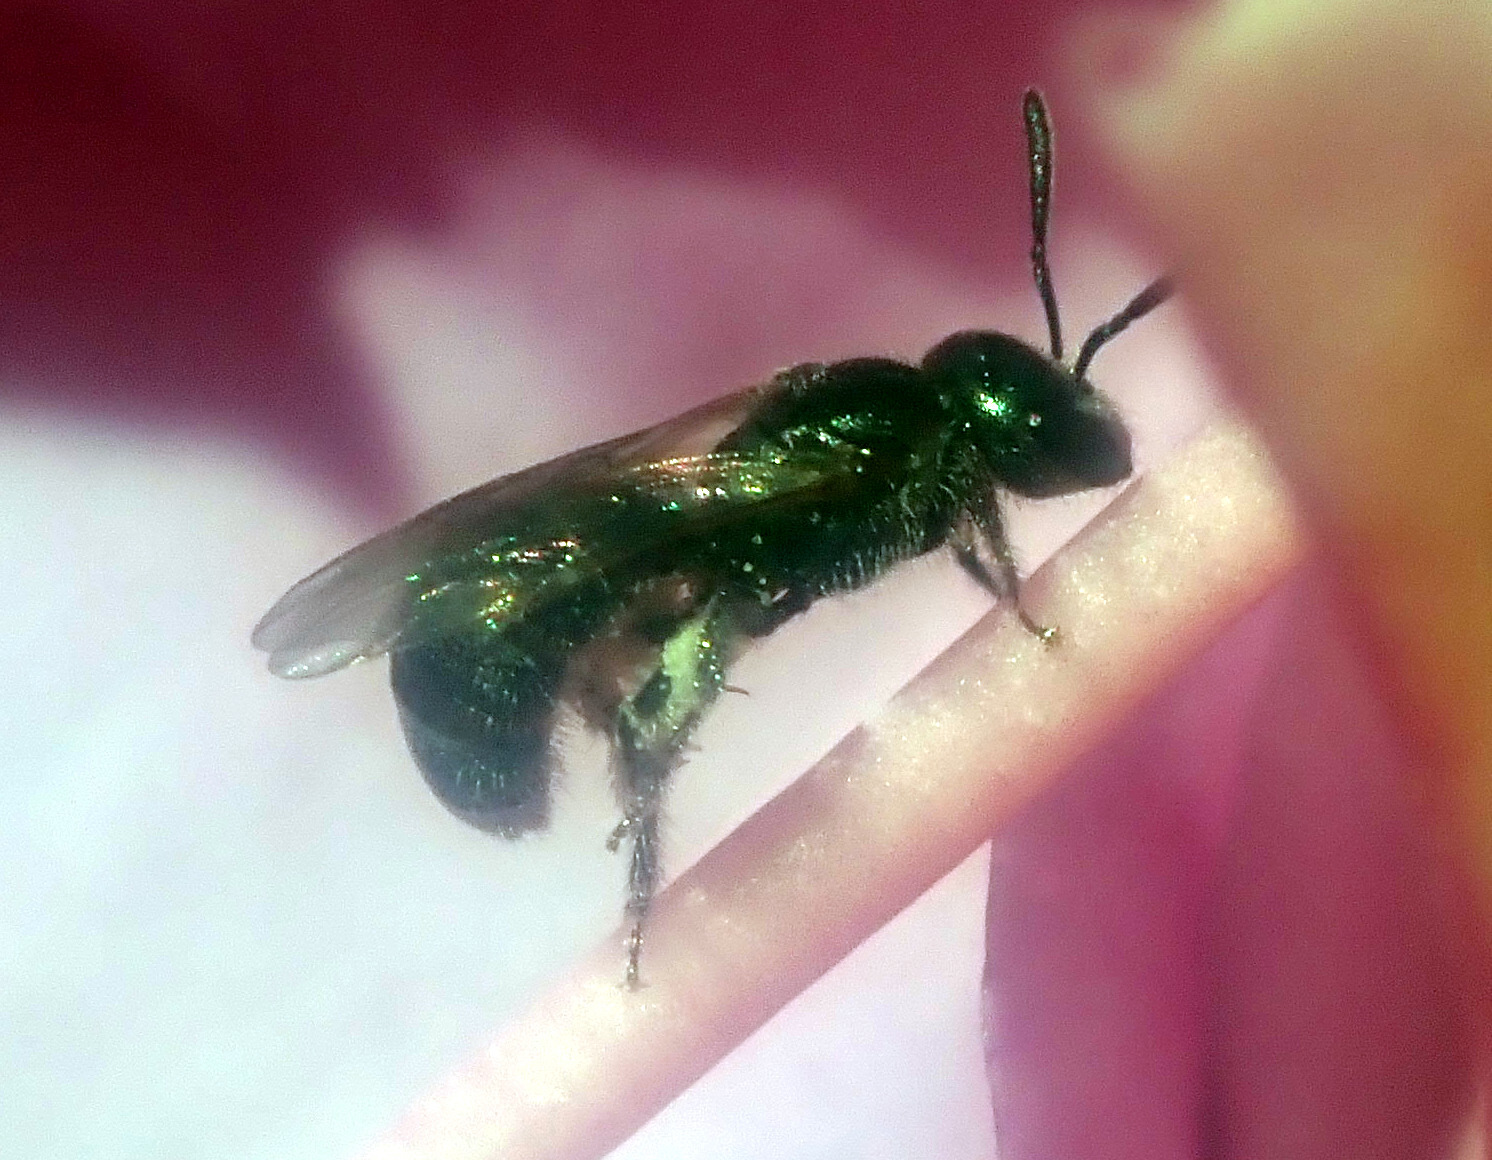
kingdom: Animalia
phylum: Arthropoda
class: Insecta
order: Hymenoptera
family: Halictidae
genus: Dialictus
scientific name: Dialictus
